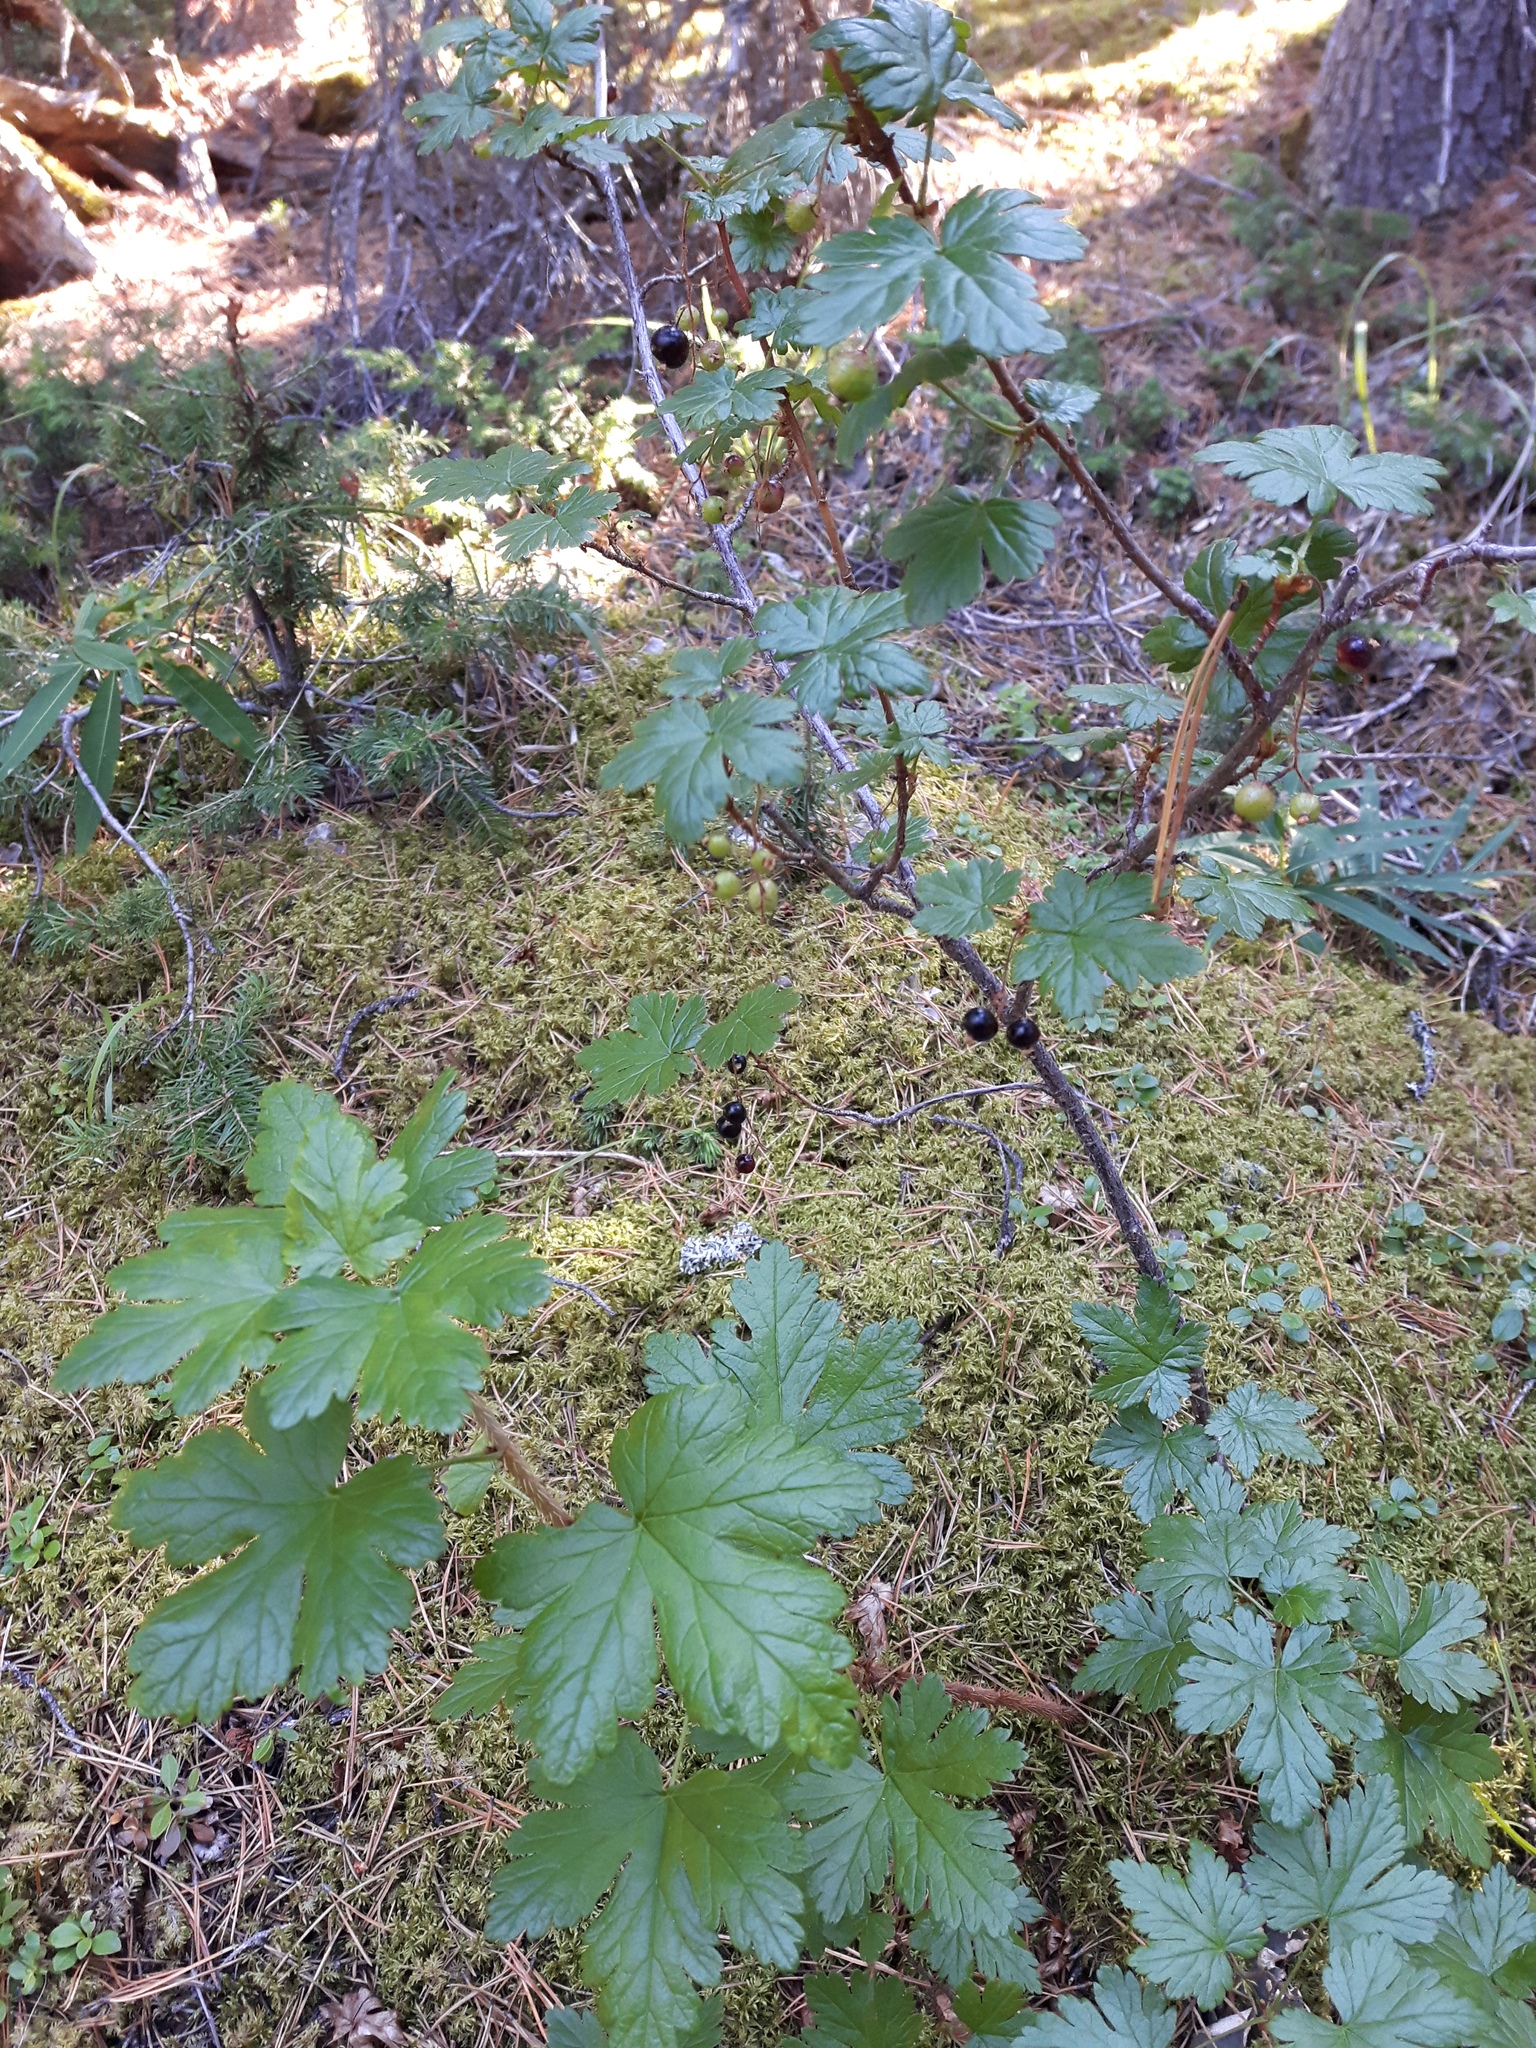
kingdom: Plantae
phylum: Tracheophyta
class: Magnoliopsida
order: Saxifragales
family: Grossulariaceae
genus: Ribes
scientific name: Ribes lacustre
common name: Black gooseberry
